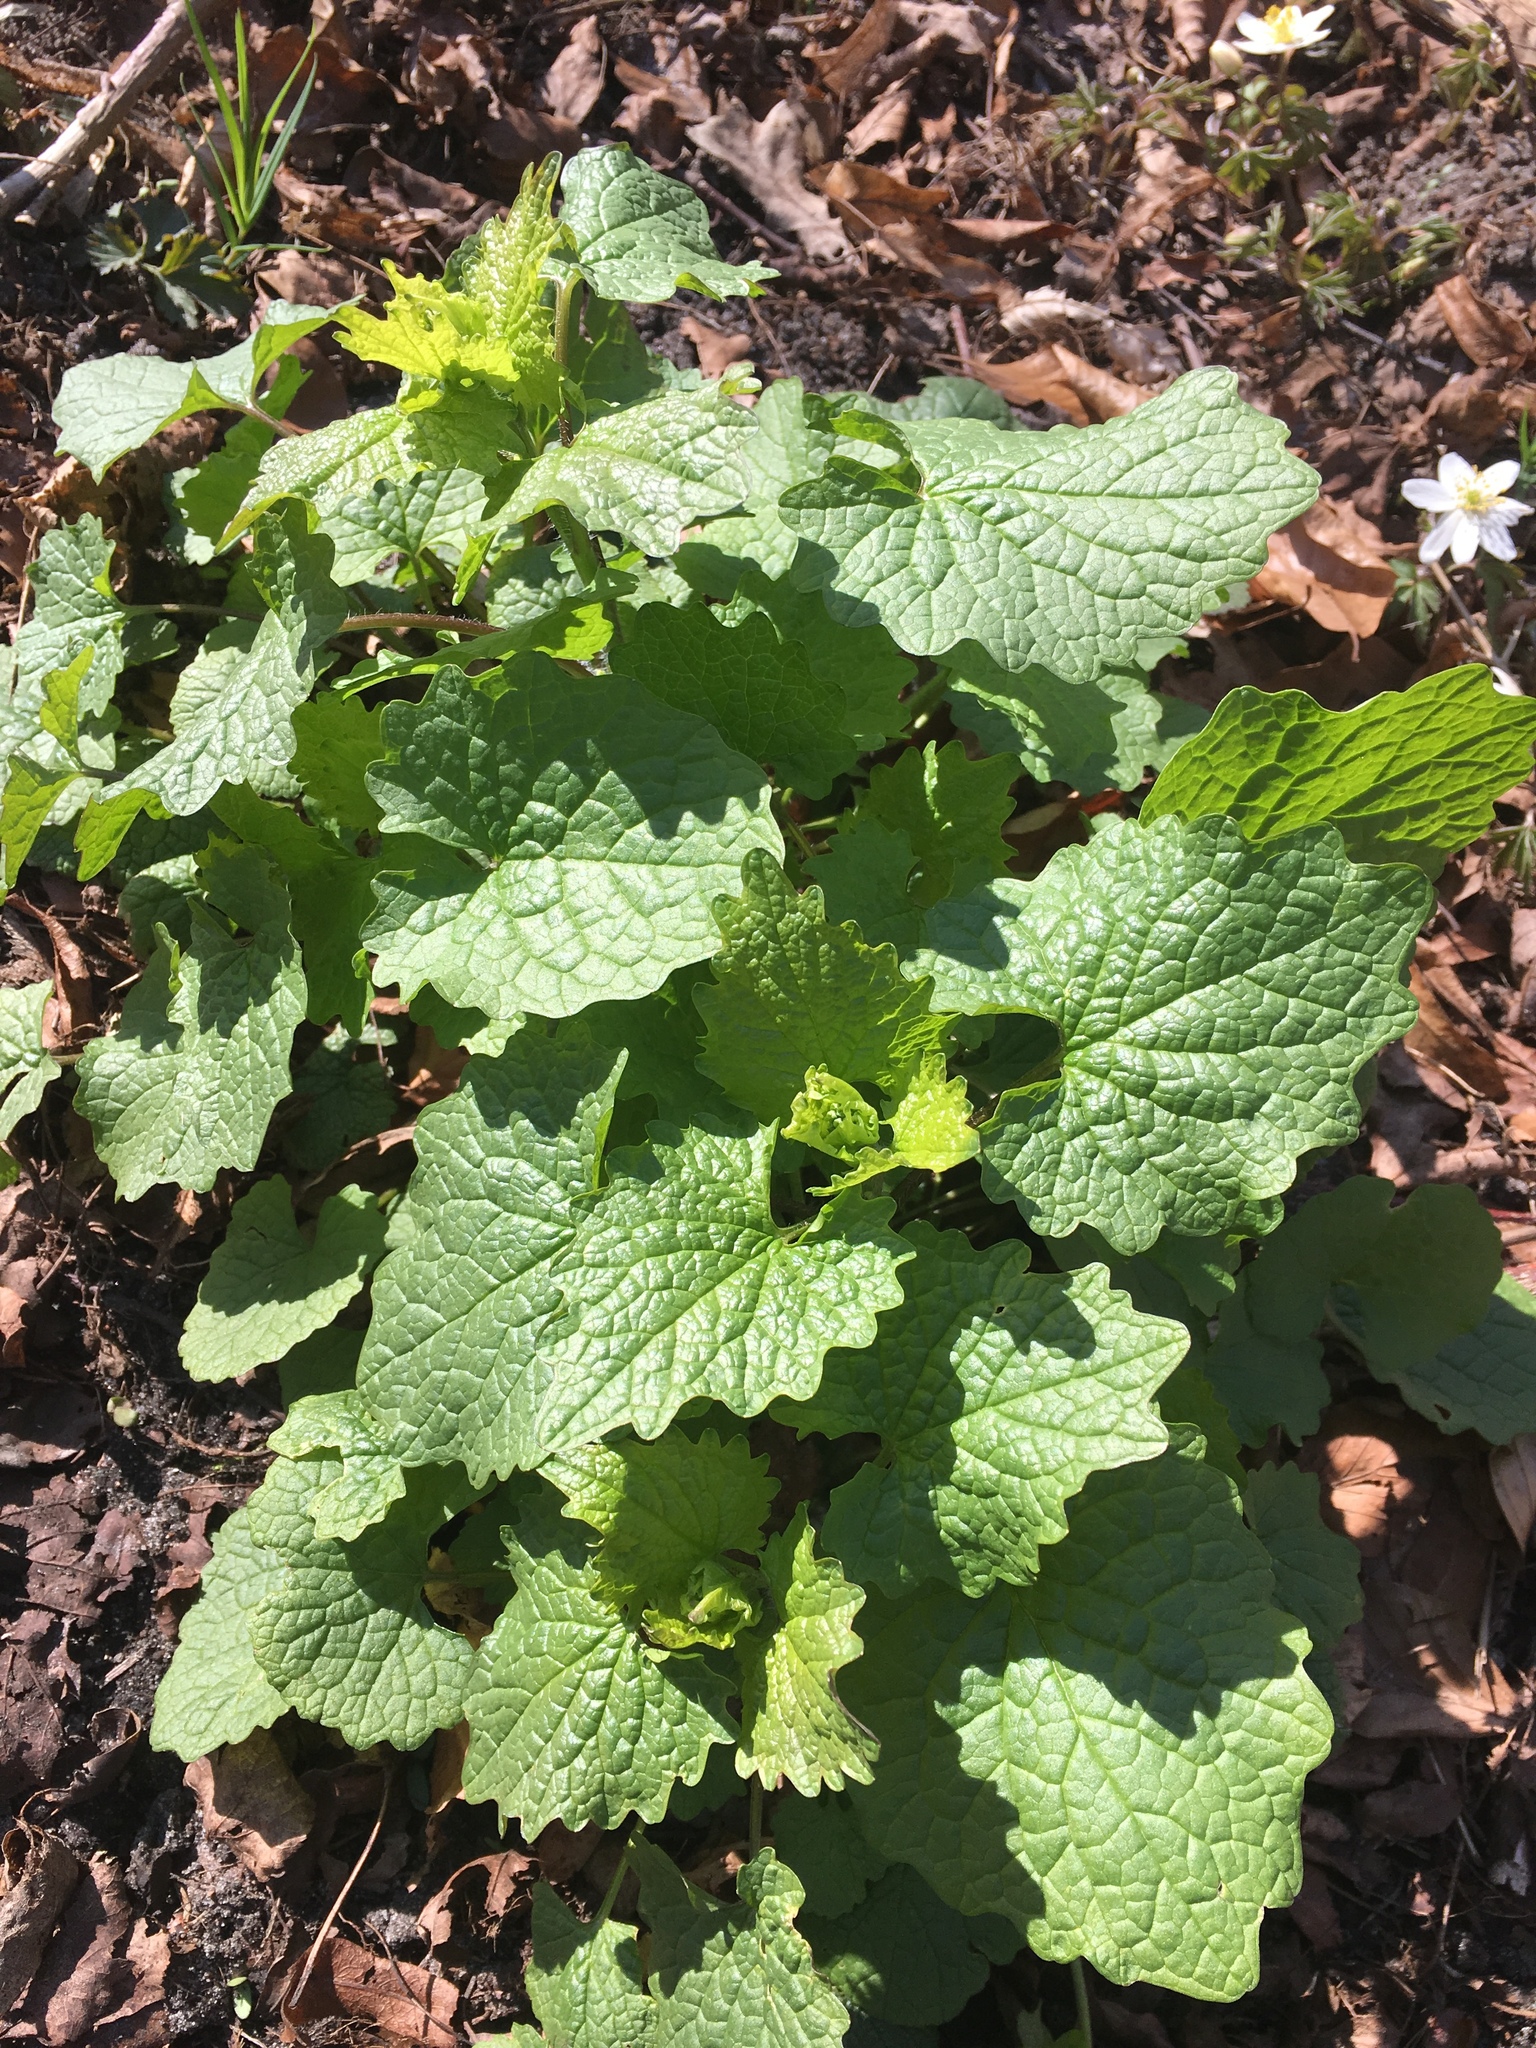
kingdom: Plantae
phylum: Tracheophyta
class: Magnoliopsida
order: Brassicales
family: Brassicaceae
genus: Alliaria
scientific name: Alliaria petiolata
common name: Garlic mustard
